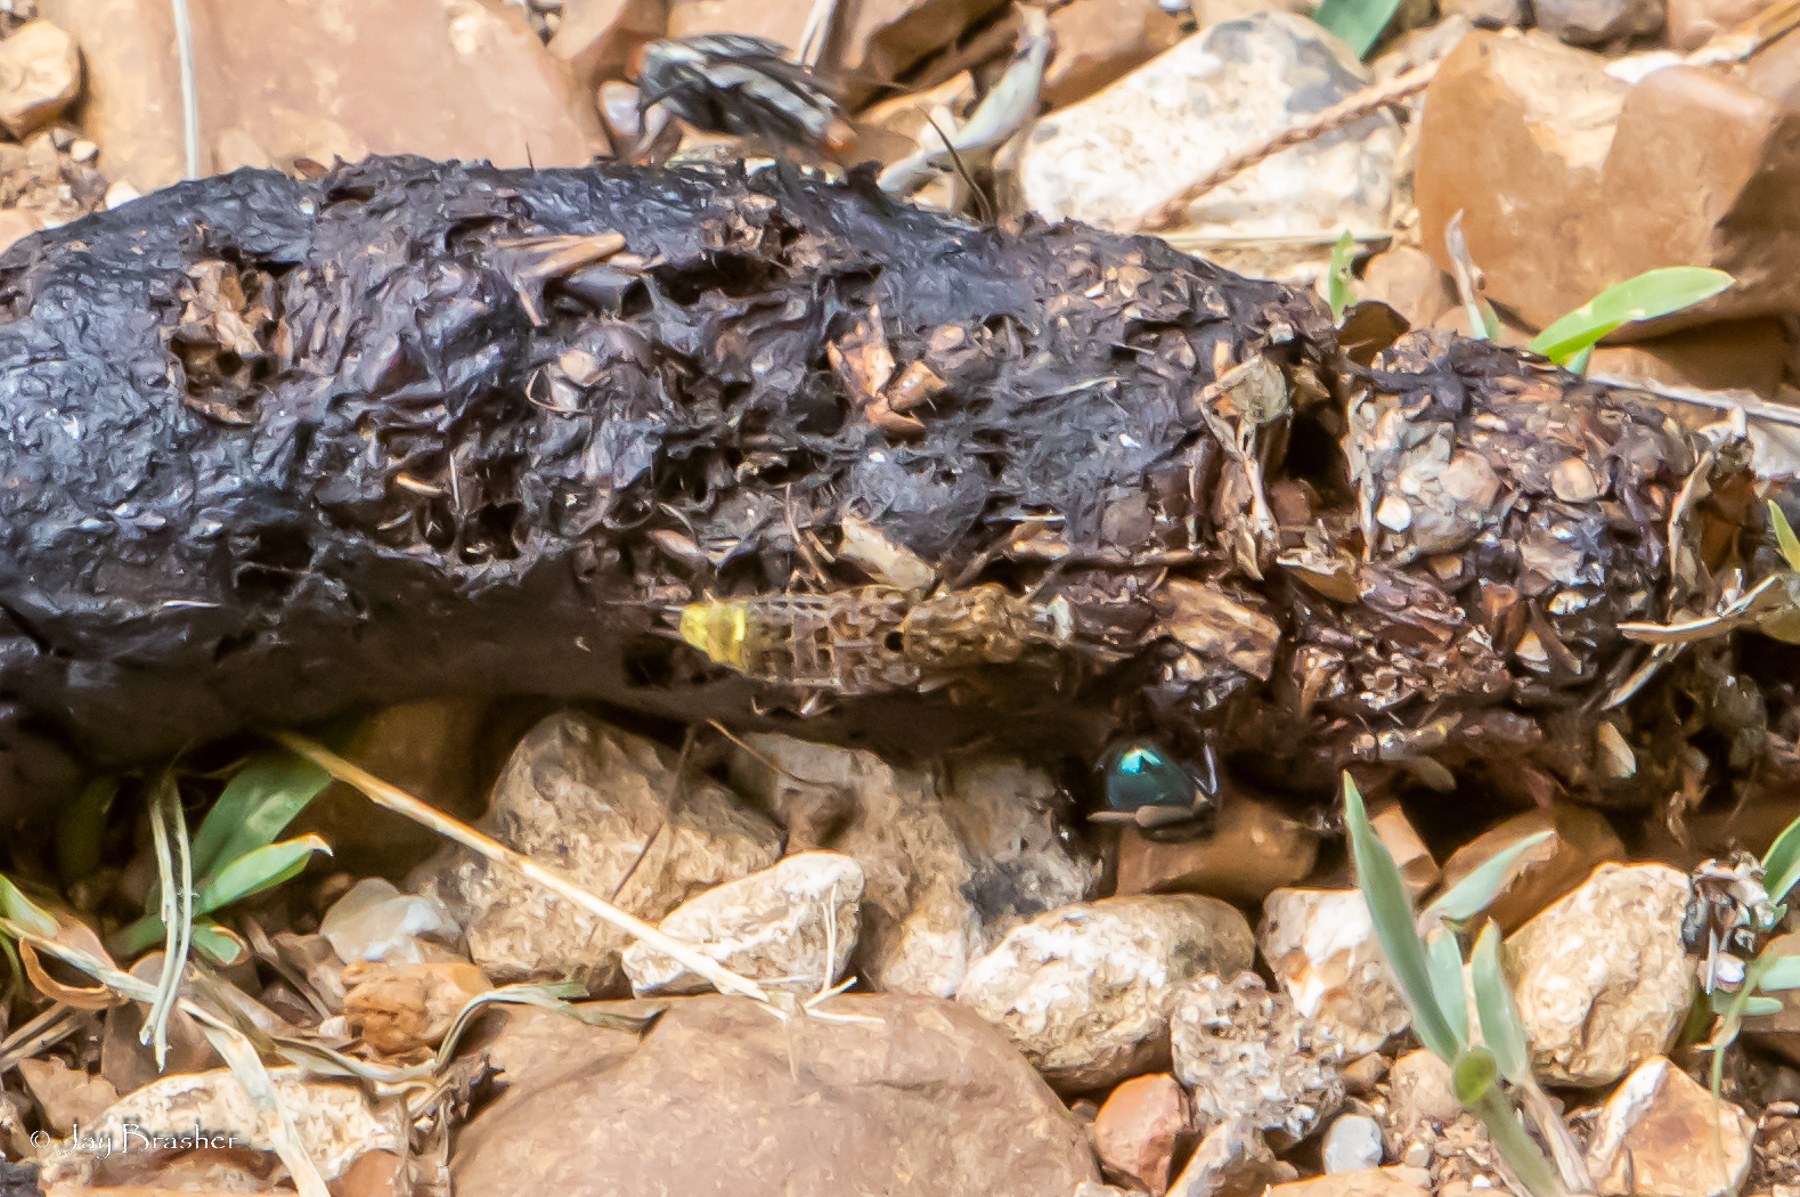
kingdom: Animalia
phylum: Arthropoda
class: Insecta
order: Coleoptera
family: Staphylinidae
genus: Ontholestes
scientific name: Ontholestes cingulatus
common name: Gold-and-brown rove beetle
